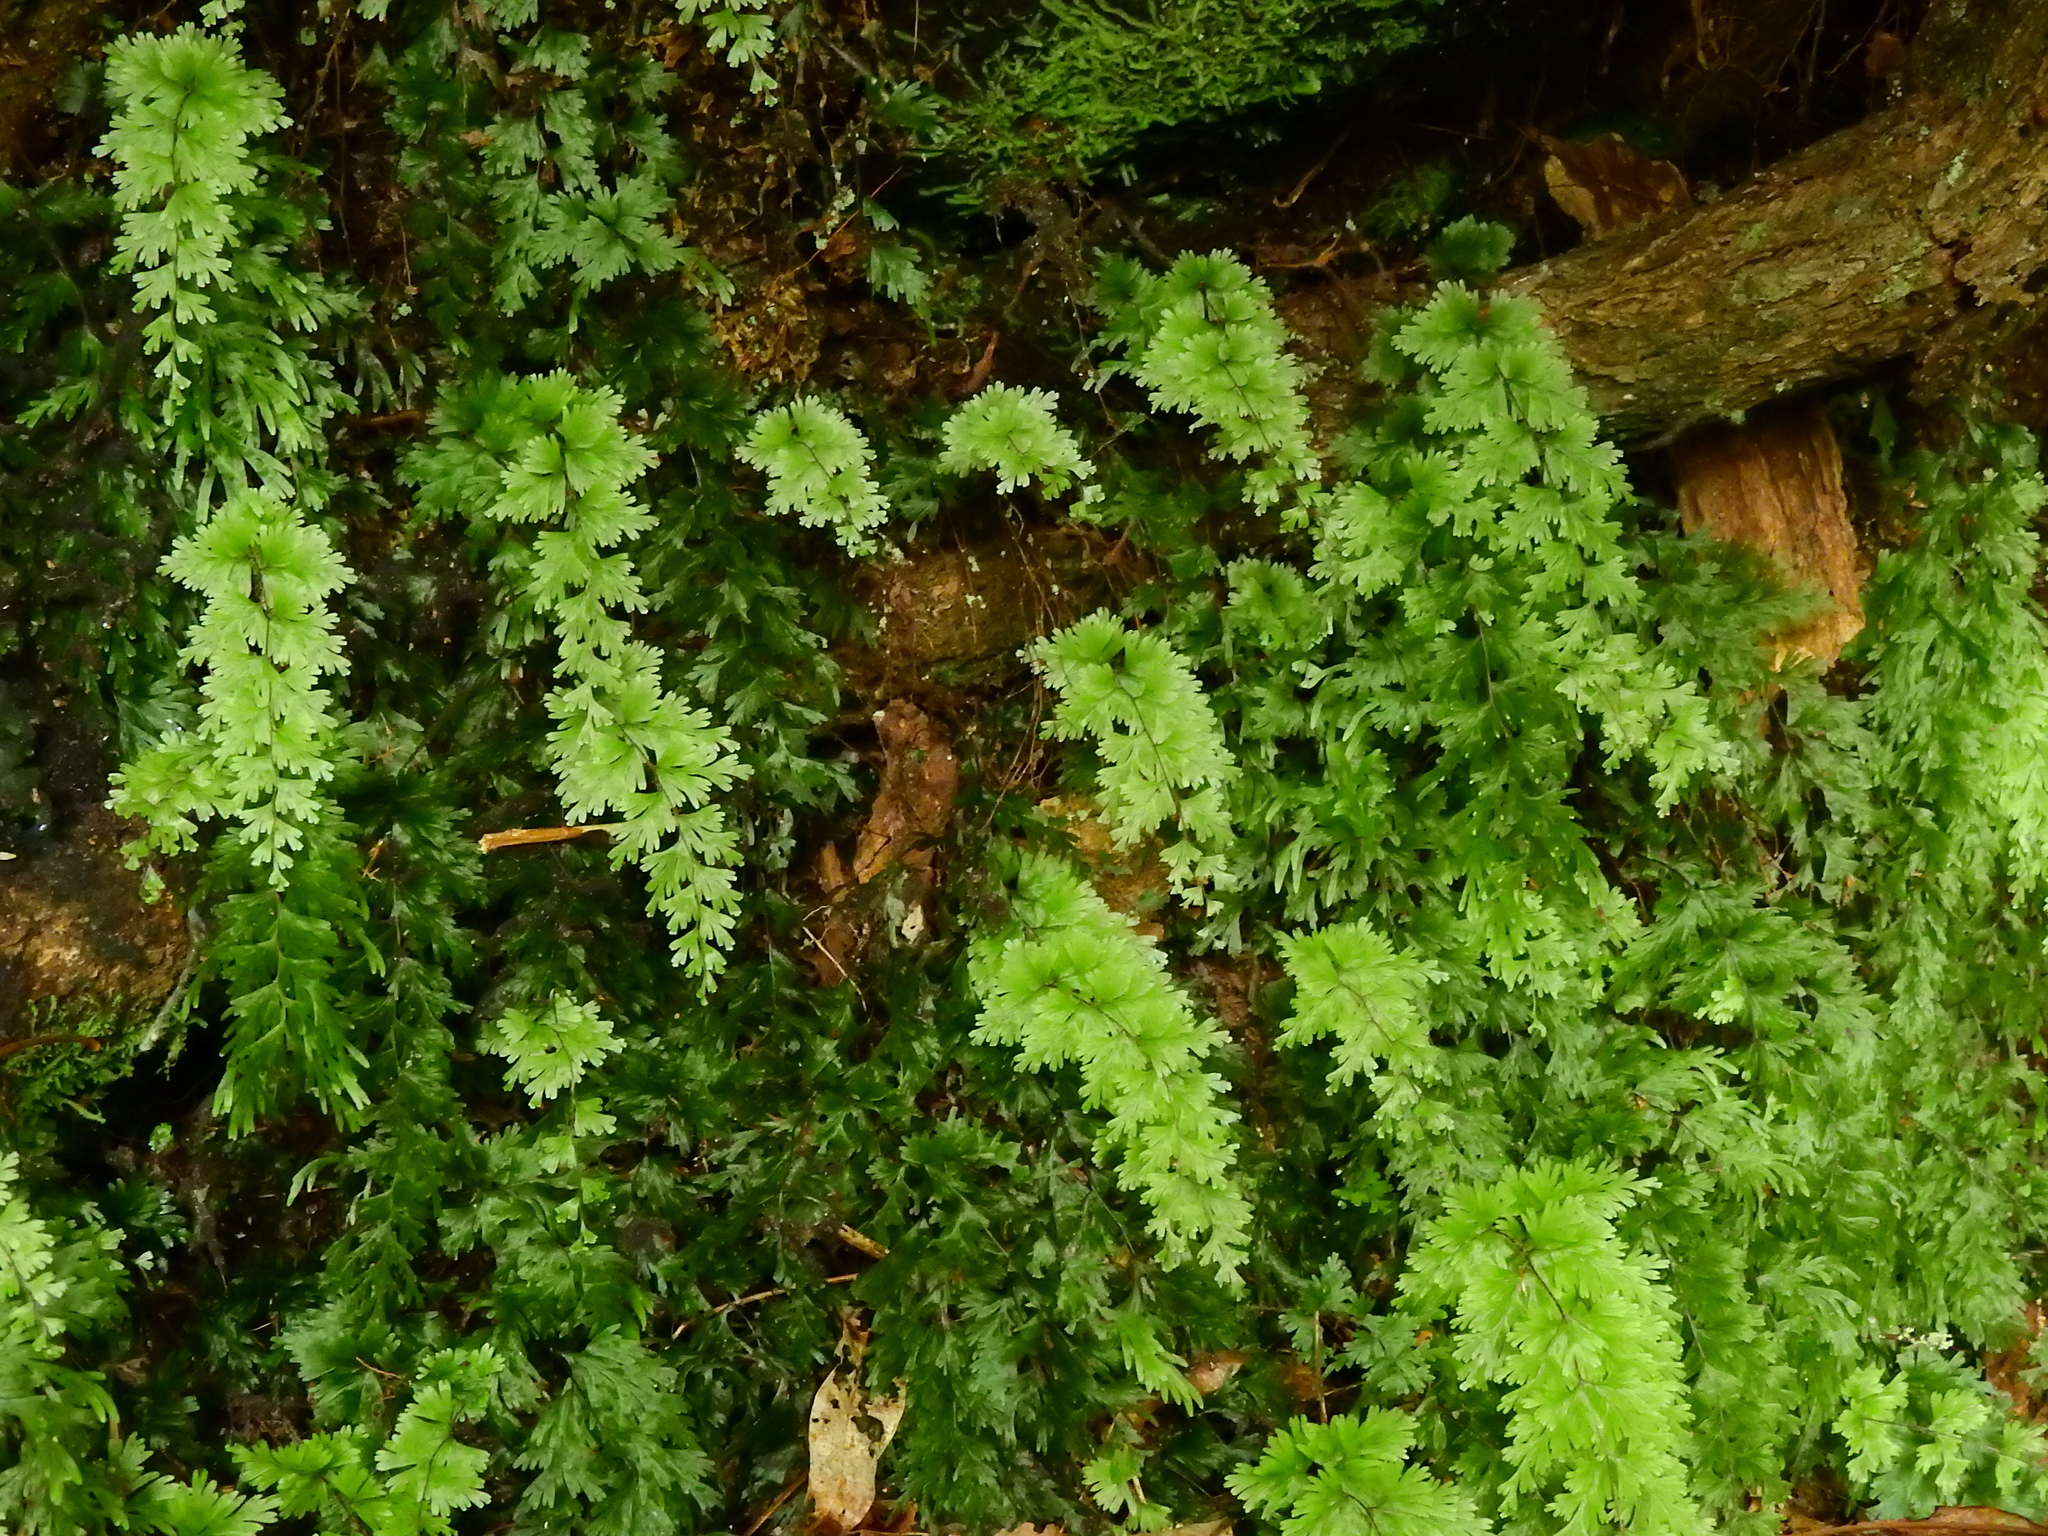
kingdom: Plantae
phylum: Tracheophyta
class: Polypodiopsida
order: Hymenophyllales
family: Hymenophyllaceae
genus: Hymenophyllum
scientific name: Hymenophyllum flabellatum
